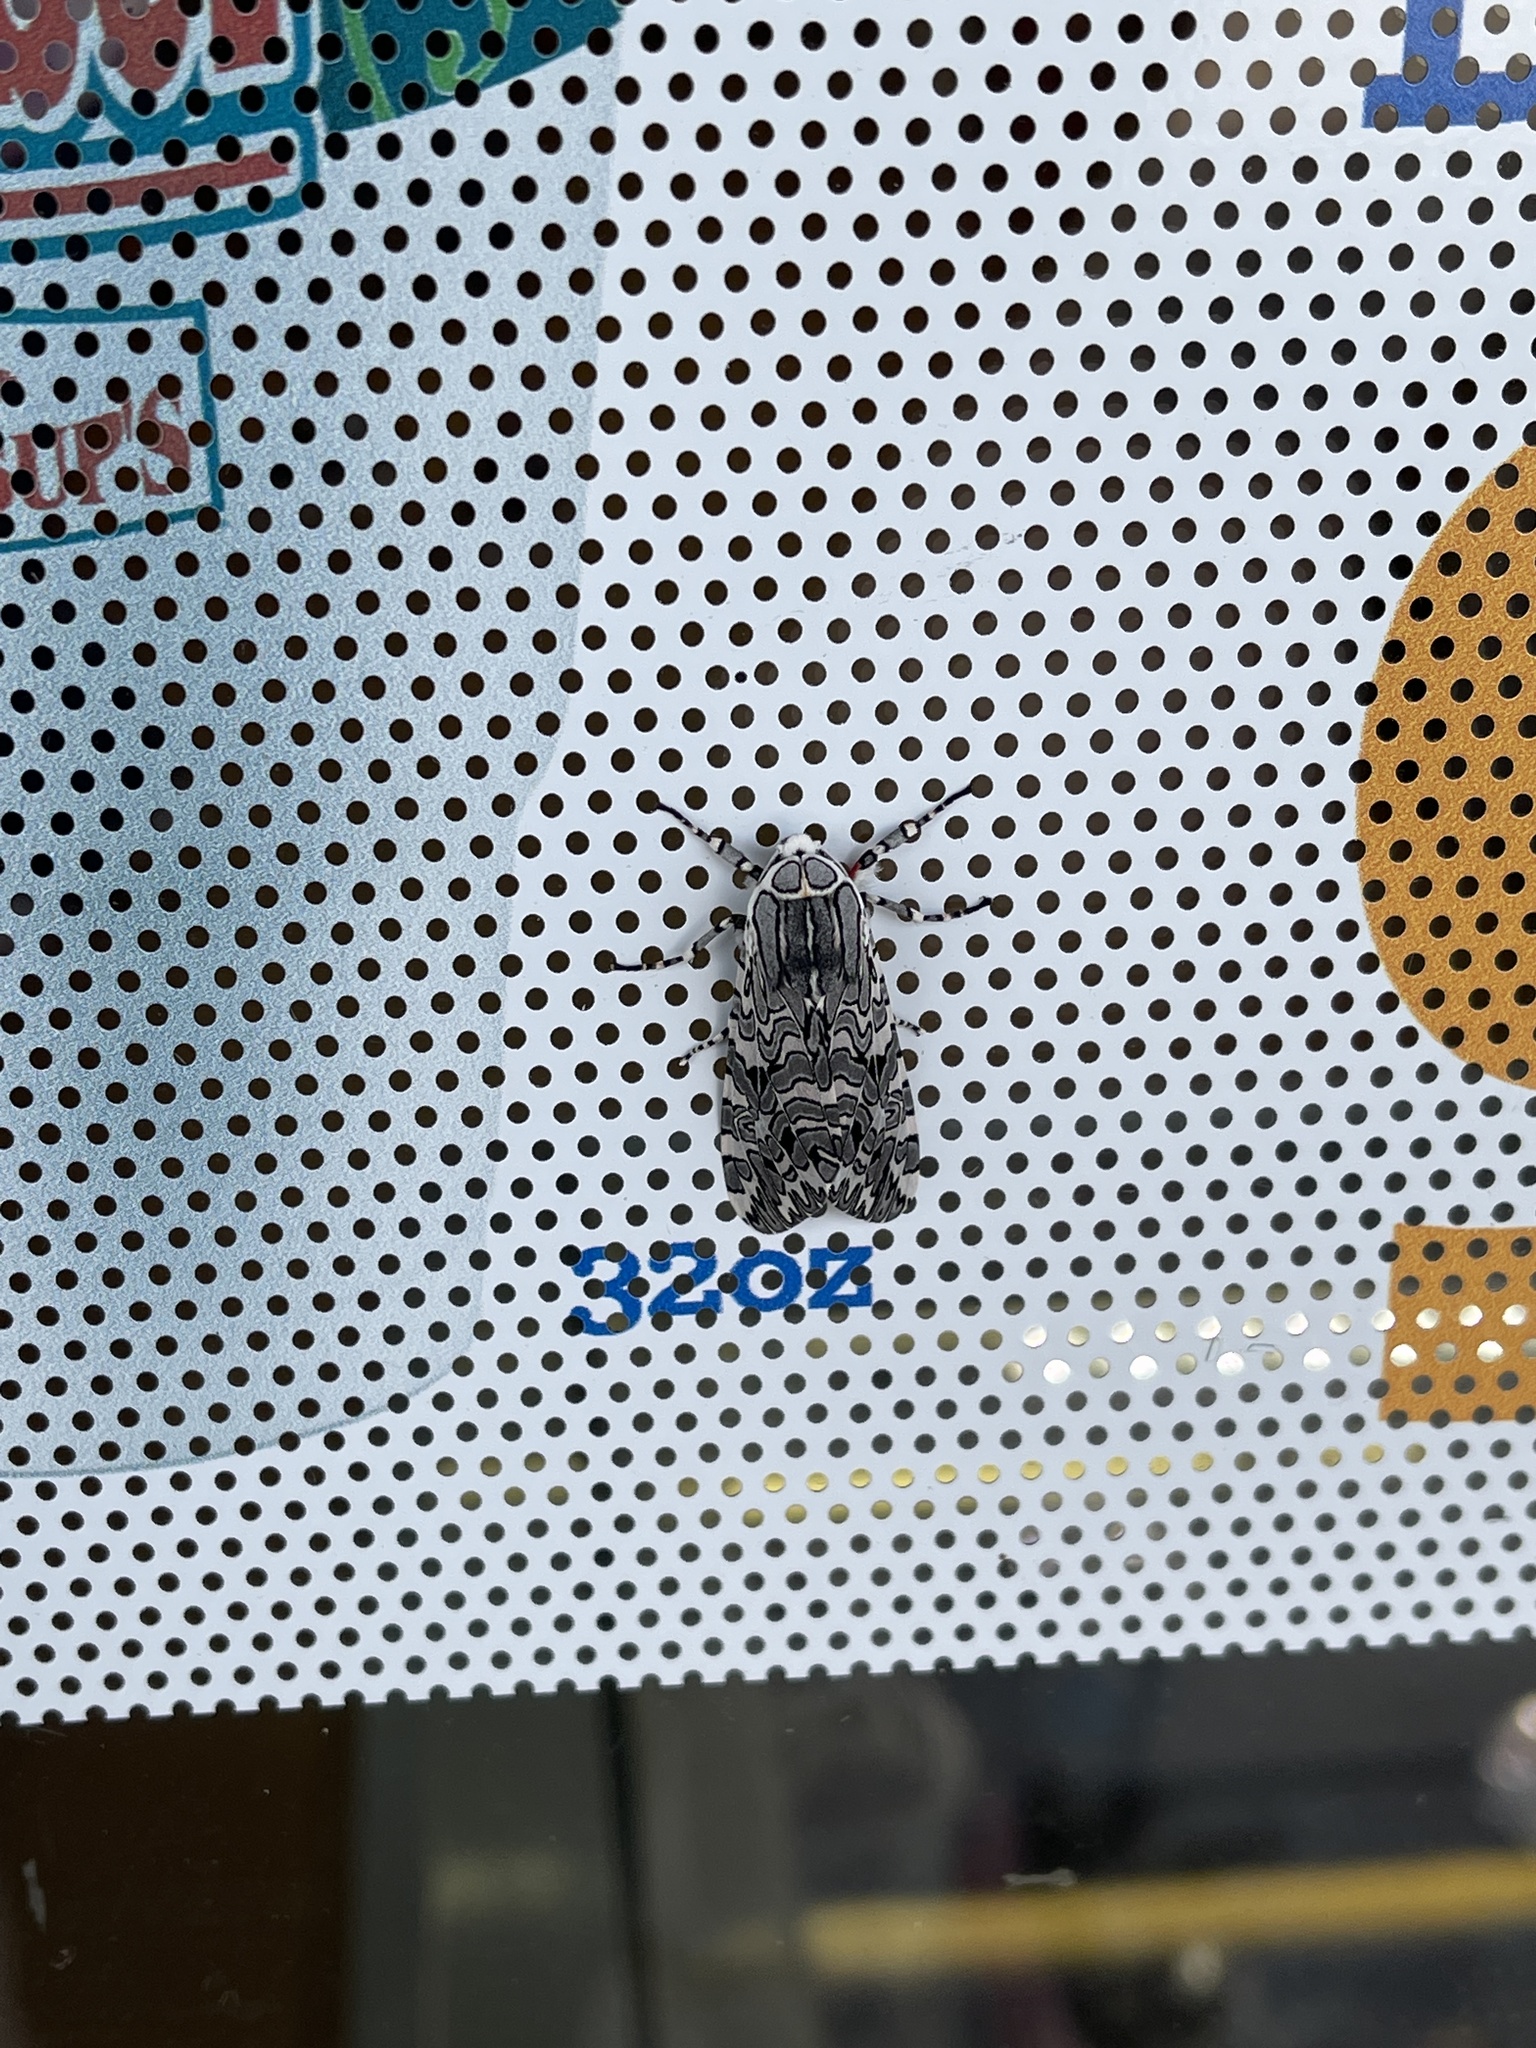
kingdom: Animalia
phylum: Arthropoda
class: Insecta
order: Lepidoptera
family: Erebidae
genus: Arachnis
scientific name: Arachnis picta
